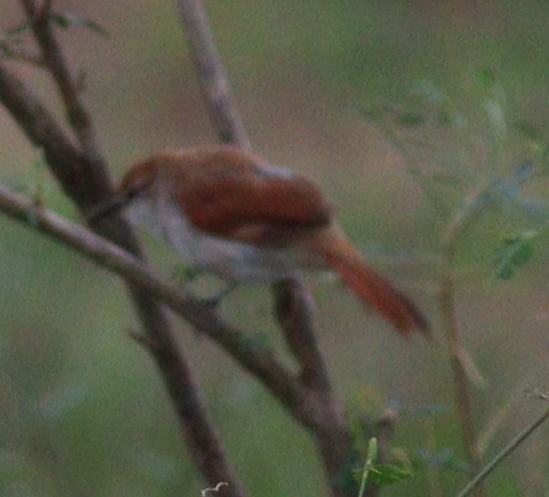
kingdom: Animalia
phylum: Chordata
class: Aves
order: Passeriformes
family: Furnariidae
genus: Certhiaxis
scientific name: Certhiaxis cinnamomeus
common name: Yellow-chinned spinetail
